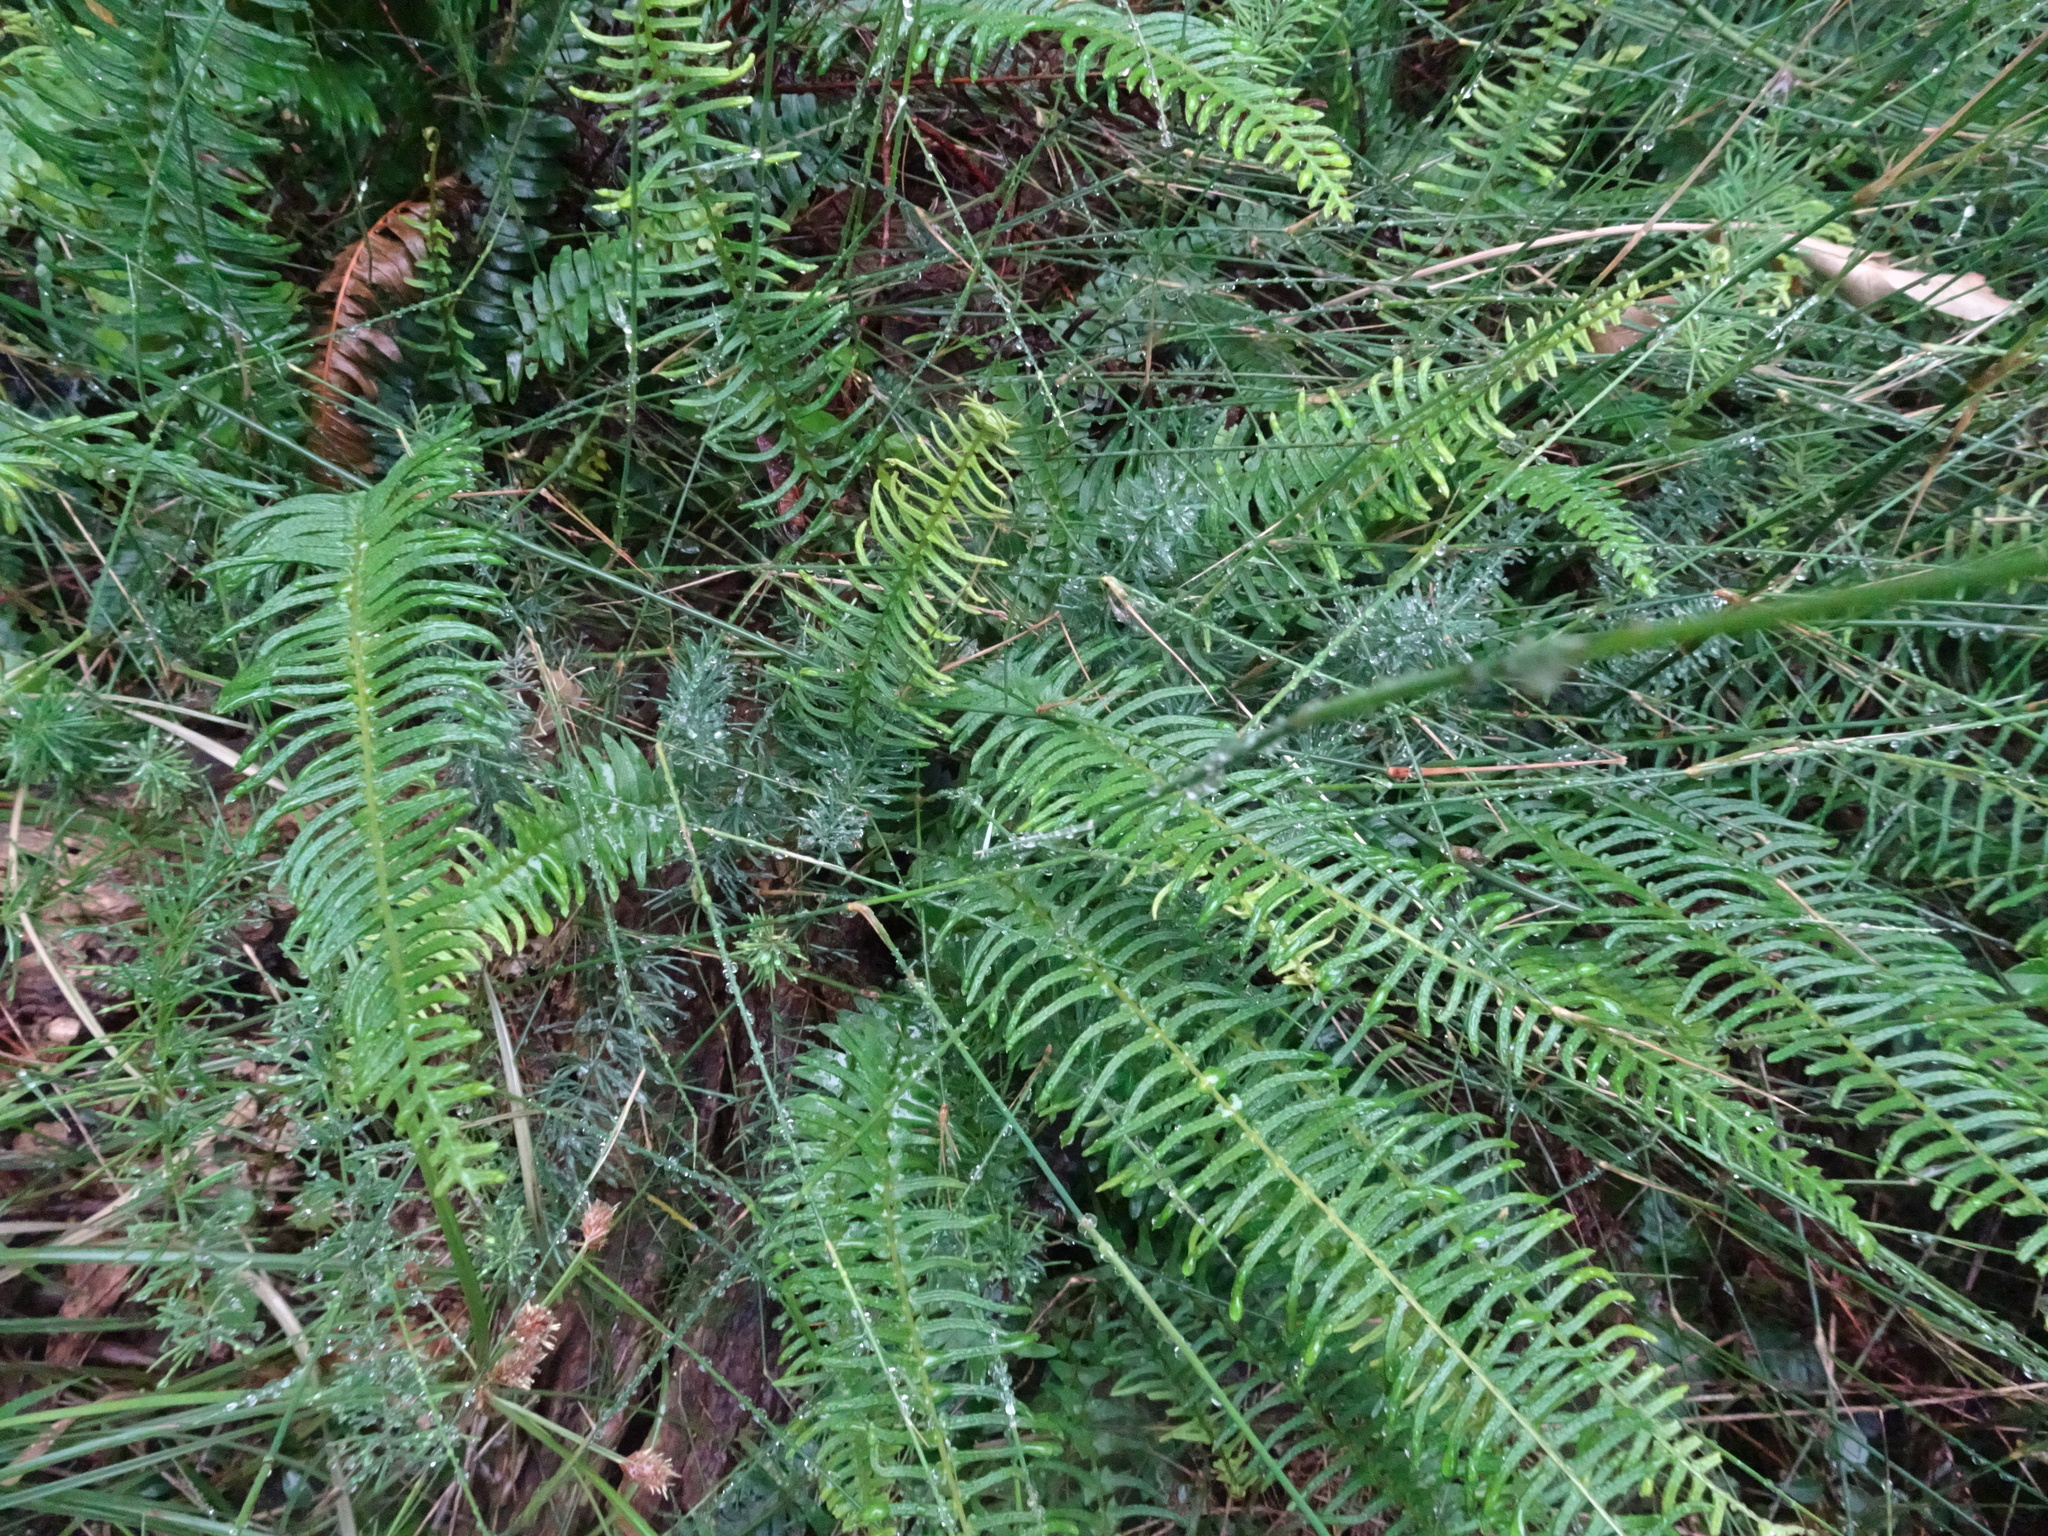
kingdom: Plantae
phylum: Tracheophyta
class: Polypodiopsida
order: Polypodiales
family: Blechnaceae
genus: Blechnum
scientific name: Blechnum punctulatum
